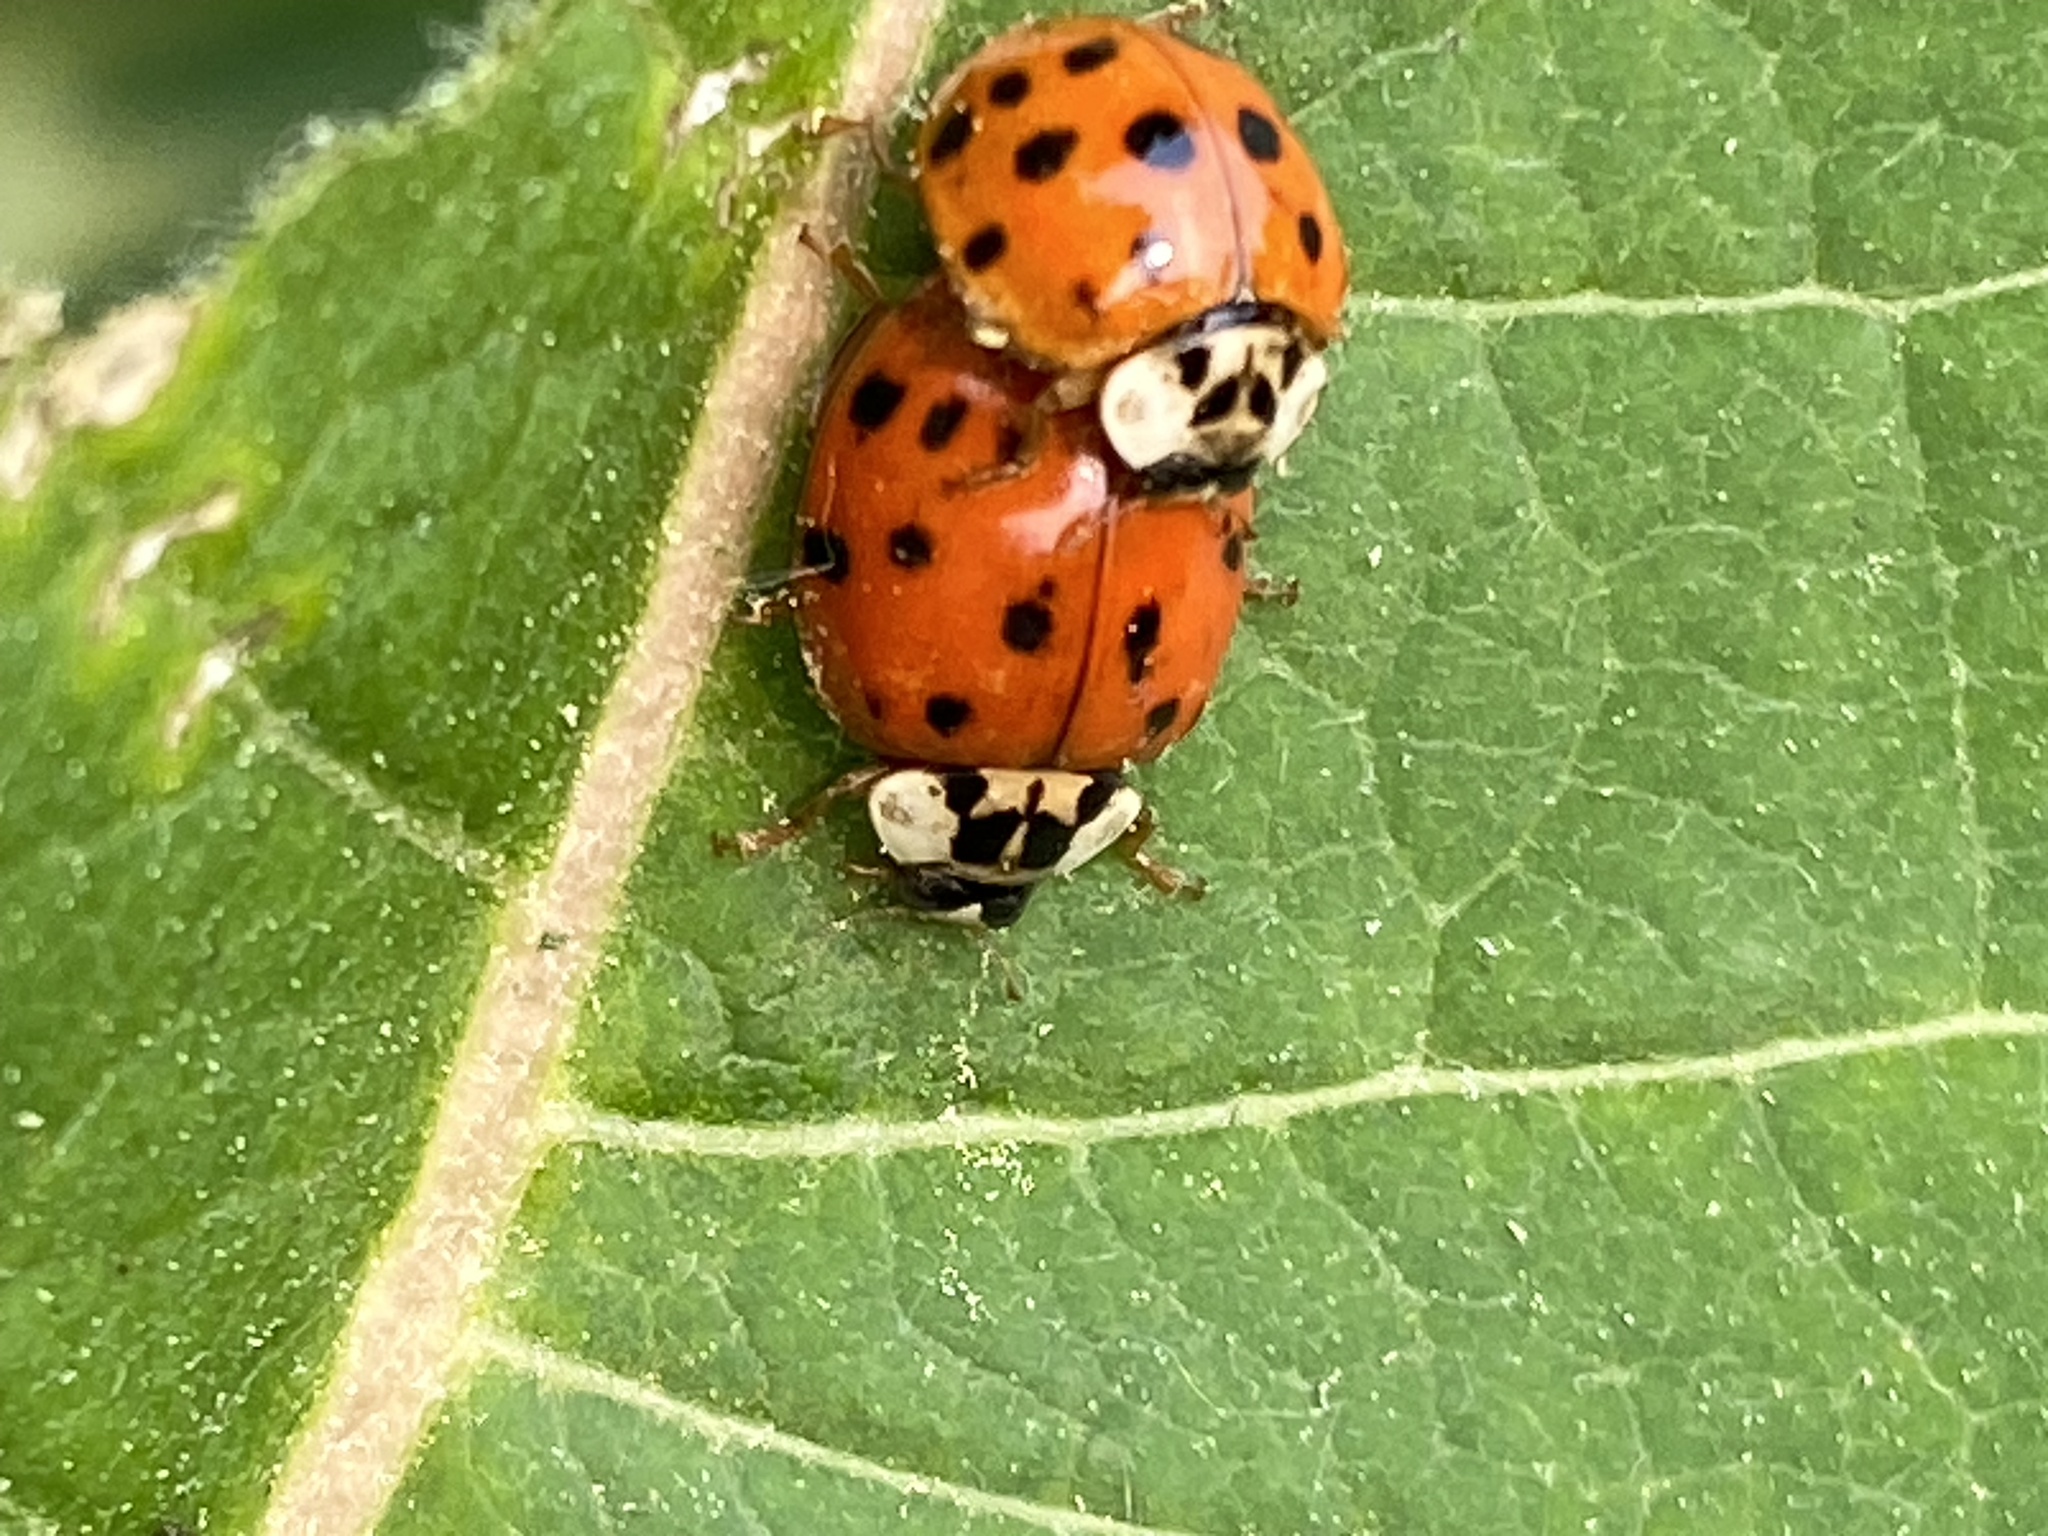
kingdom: Animalia
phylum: Arthropoda
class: Insecta
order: Coleoptera
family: Coccinellidae
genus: Harmonia
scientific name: Harmonia axyridis
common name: Harlequin ladybird
